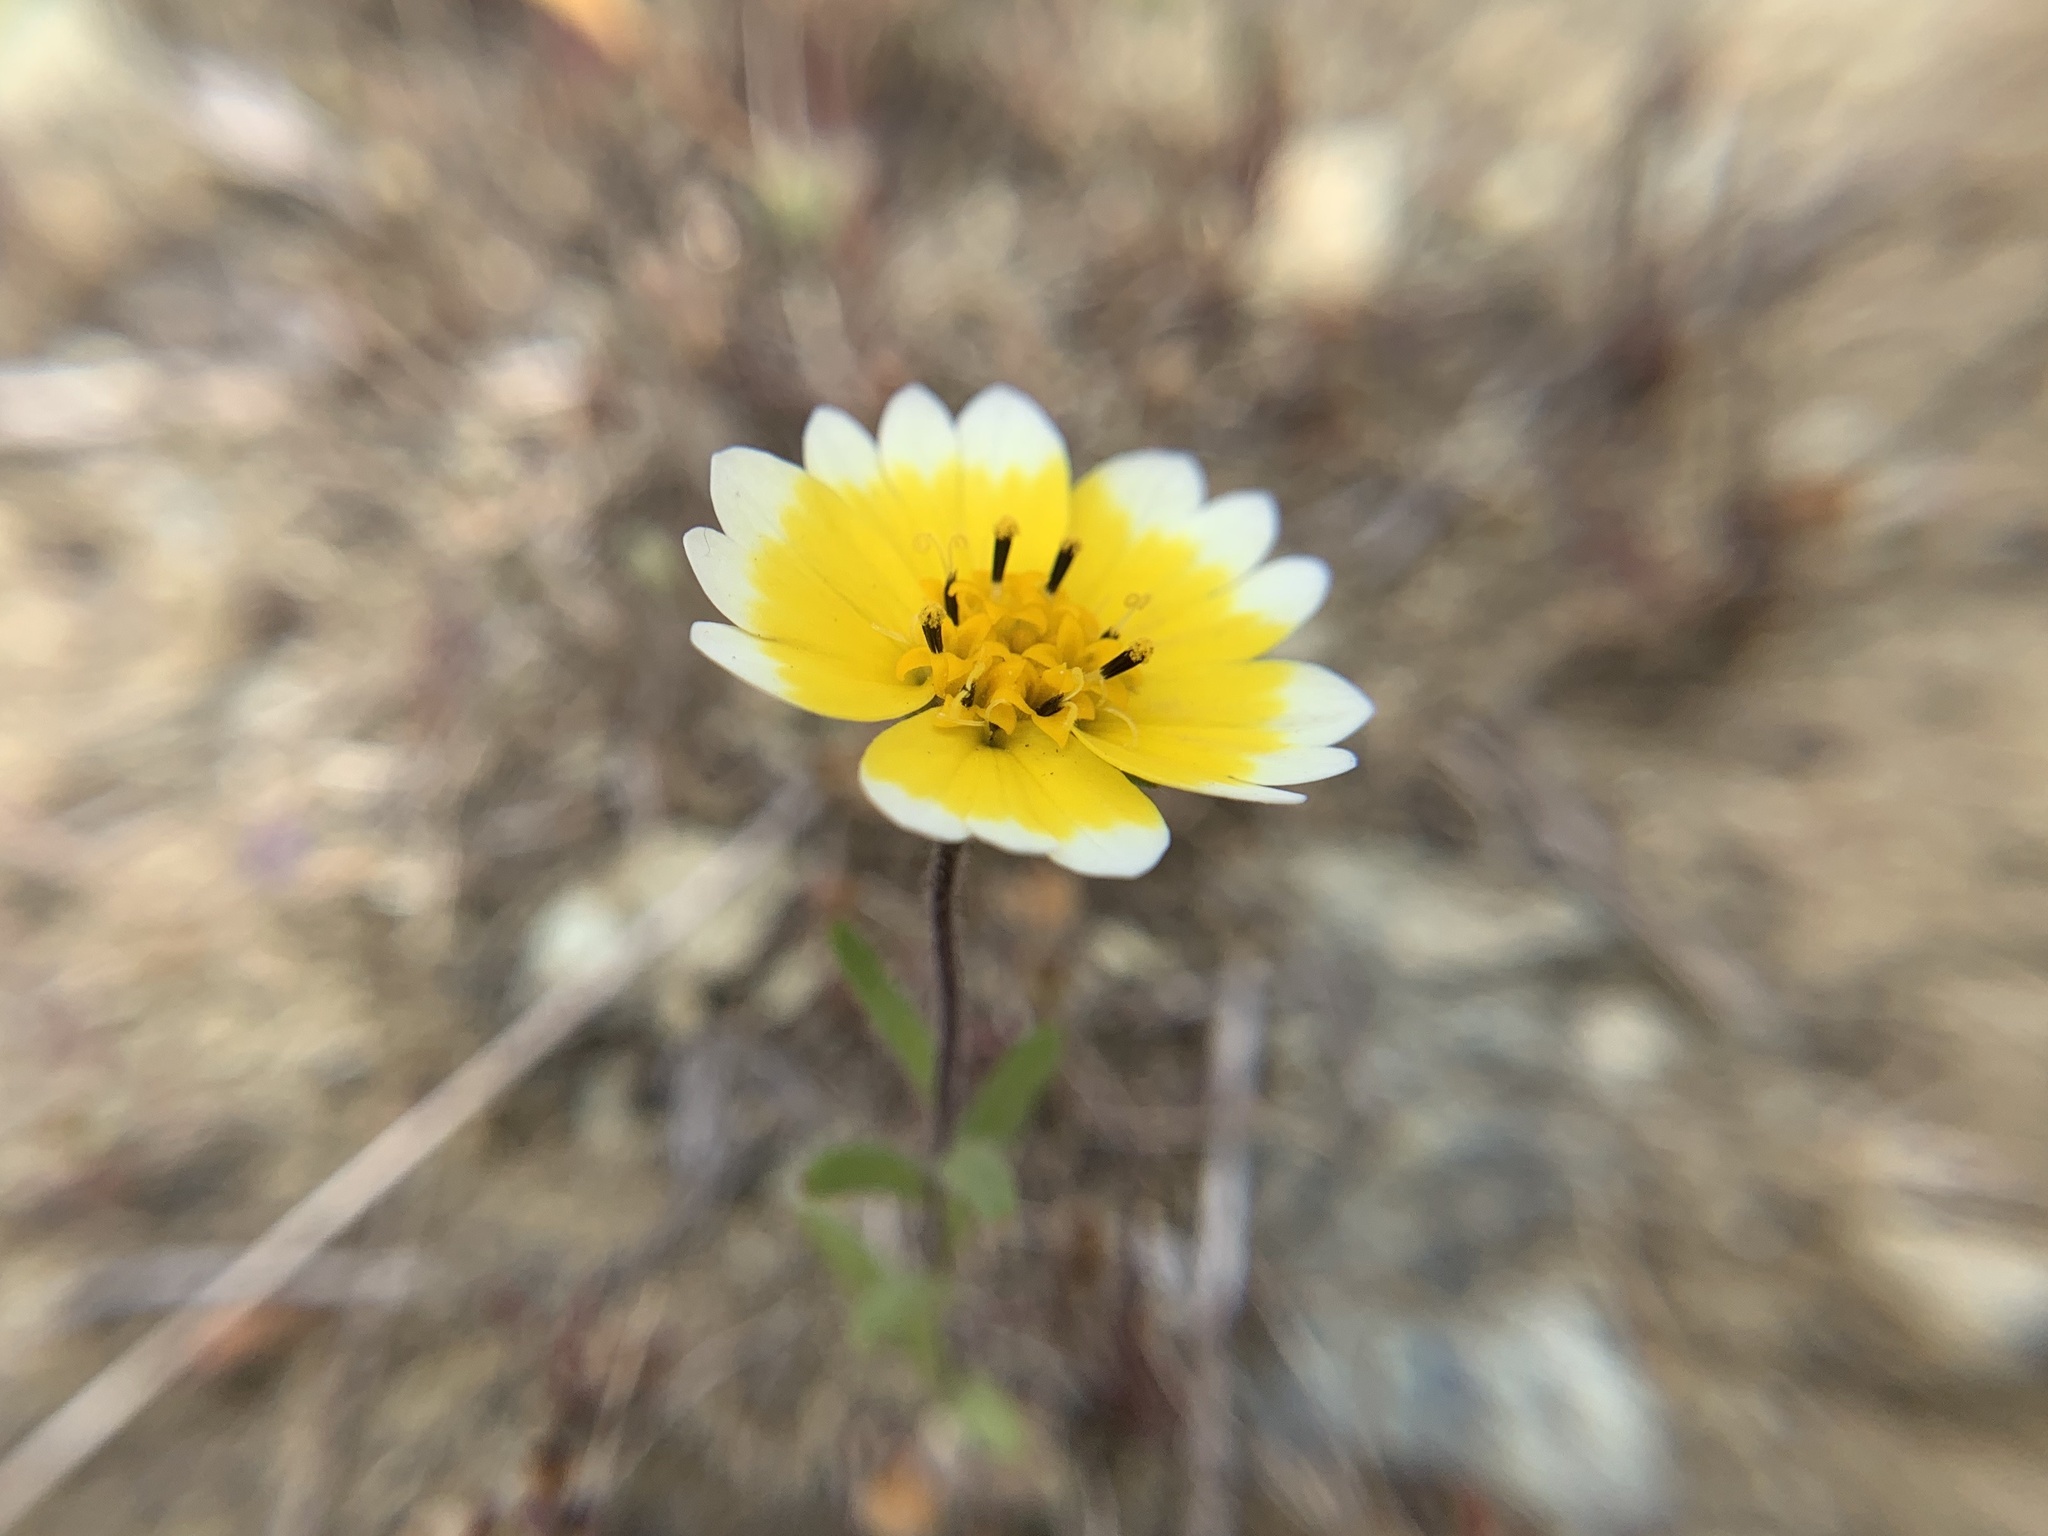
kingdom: Plantae
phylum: Tracheophyta
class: Magnoliopsida
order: Asterales
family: Asteraceae
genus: Layia
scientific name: Layia platyglossa
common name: Tidy-tips
